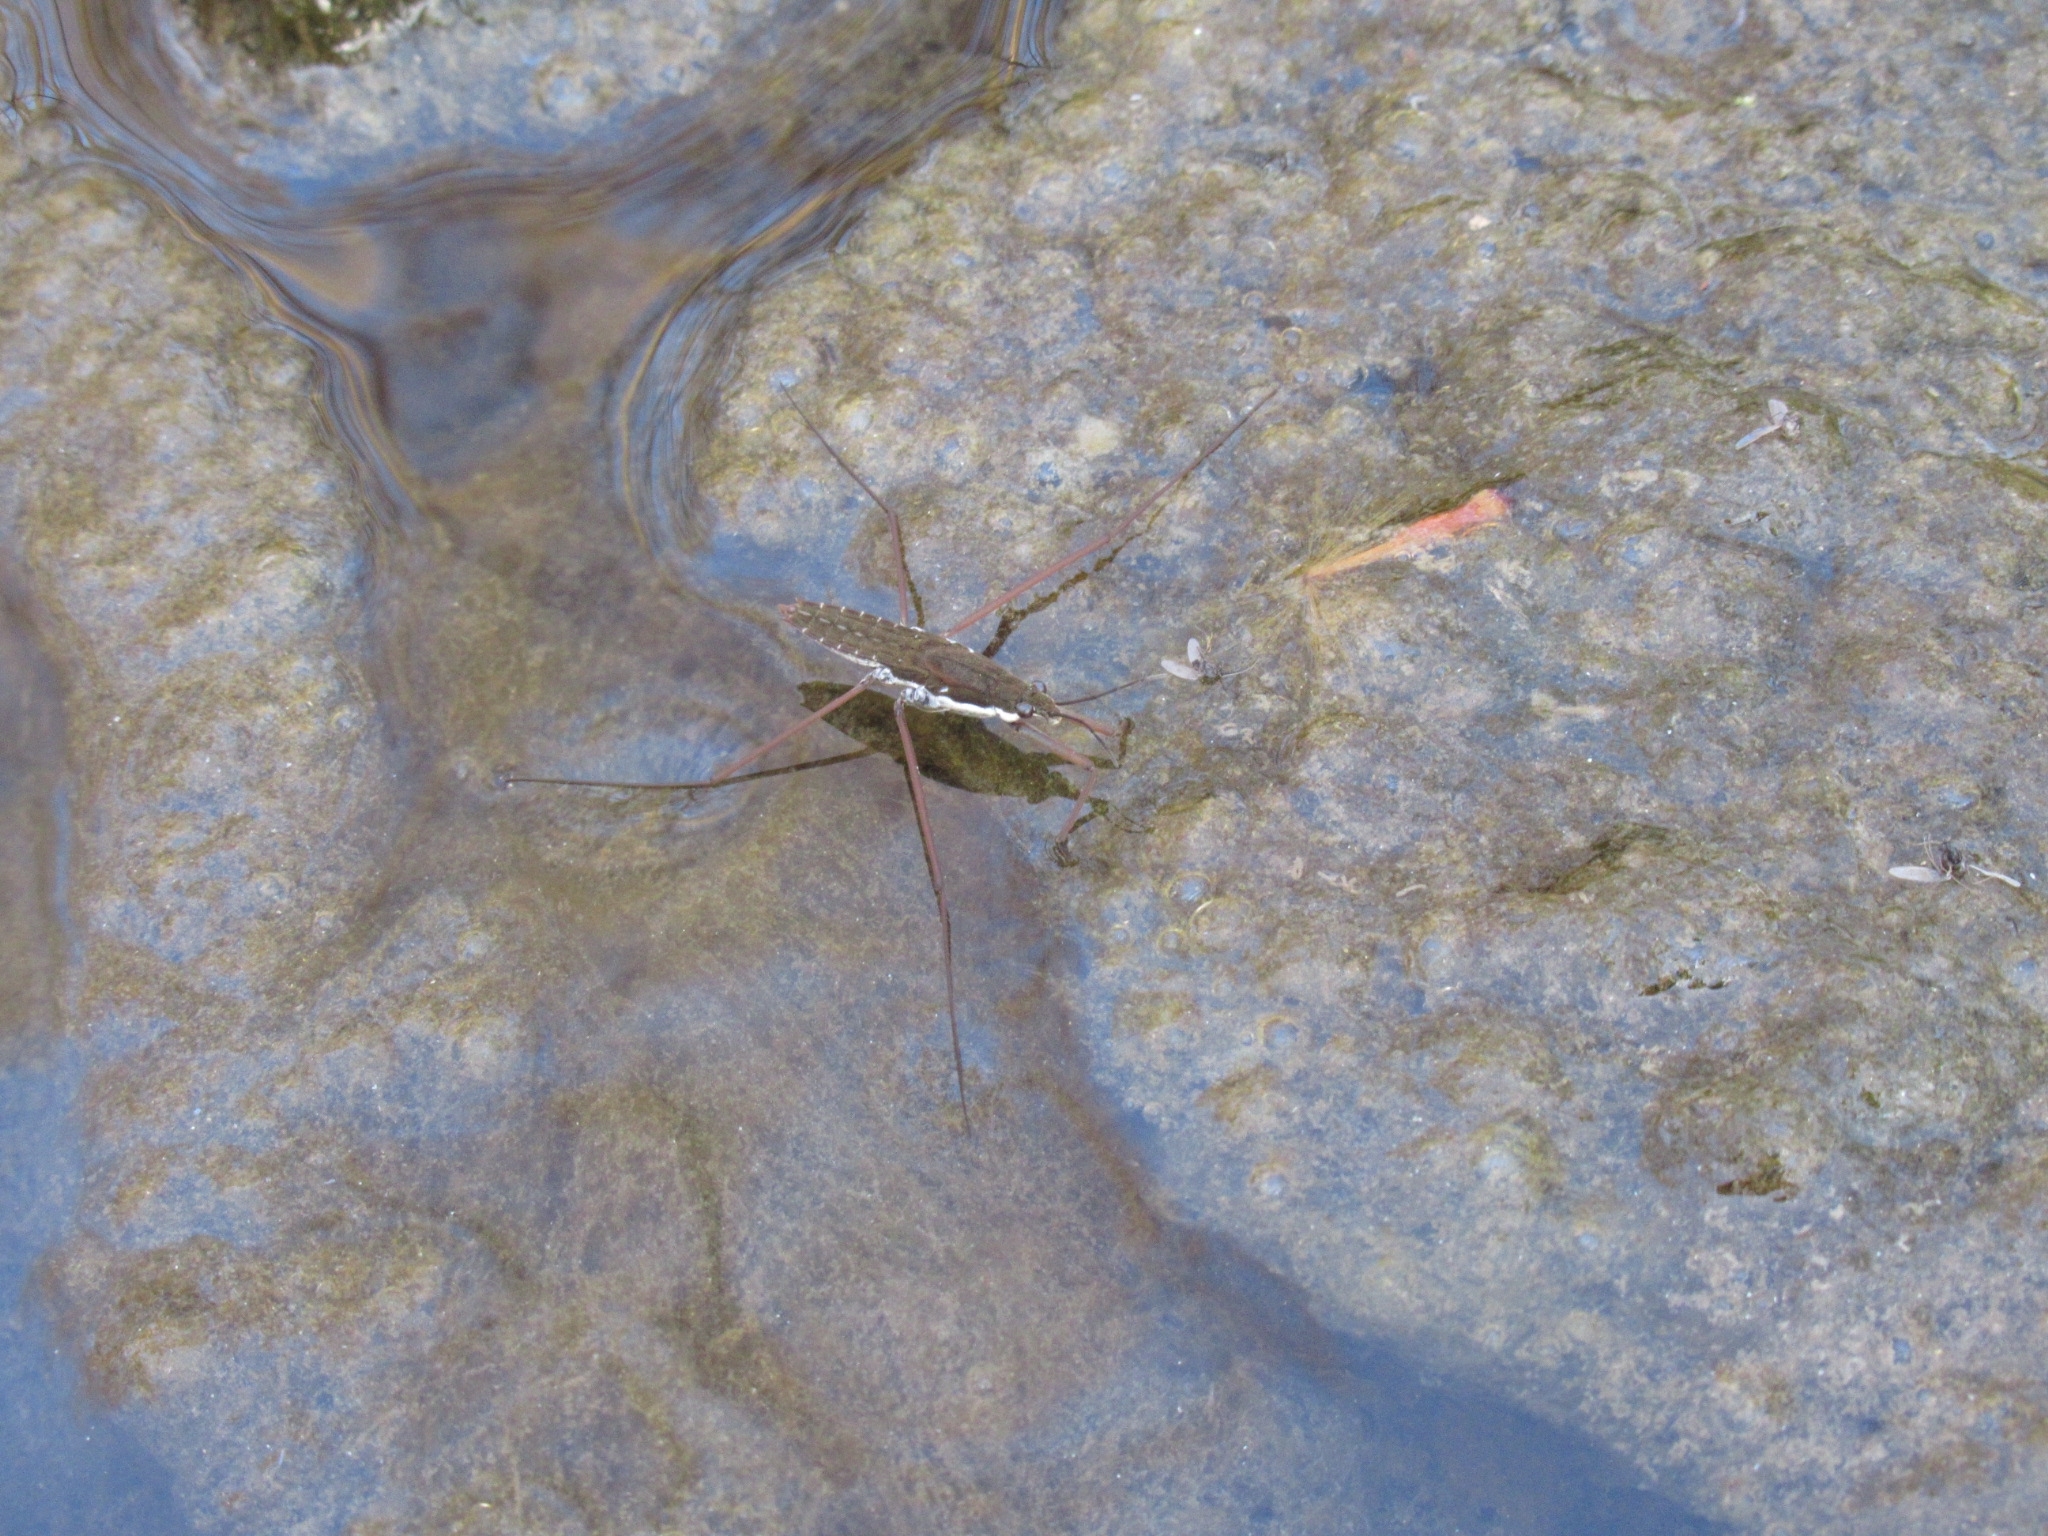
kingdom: Animalia
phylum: Arthropoda
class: Insecta
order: Hemiptera
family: Gerridae
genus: Aquarius
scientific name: Aquarius
